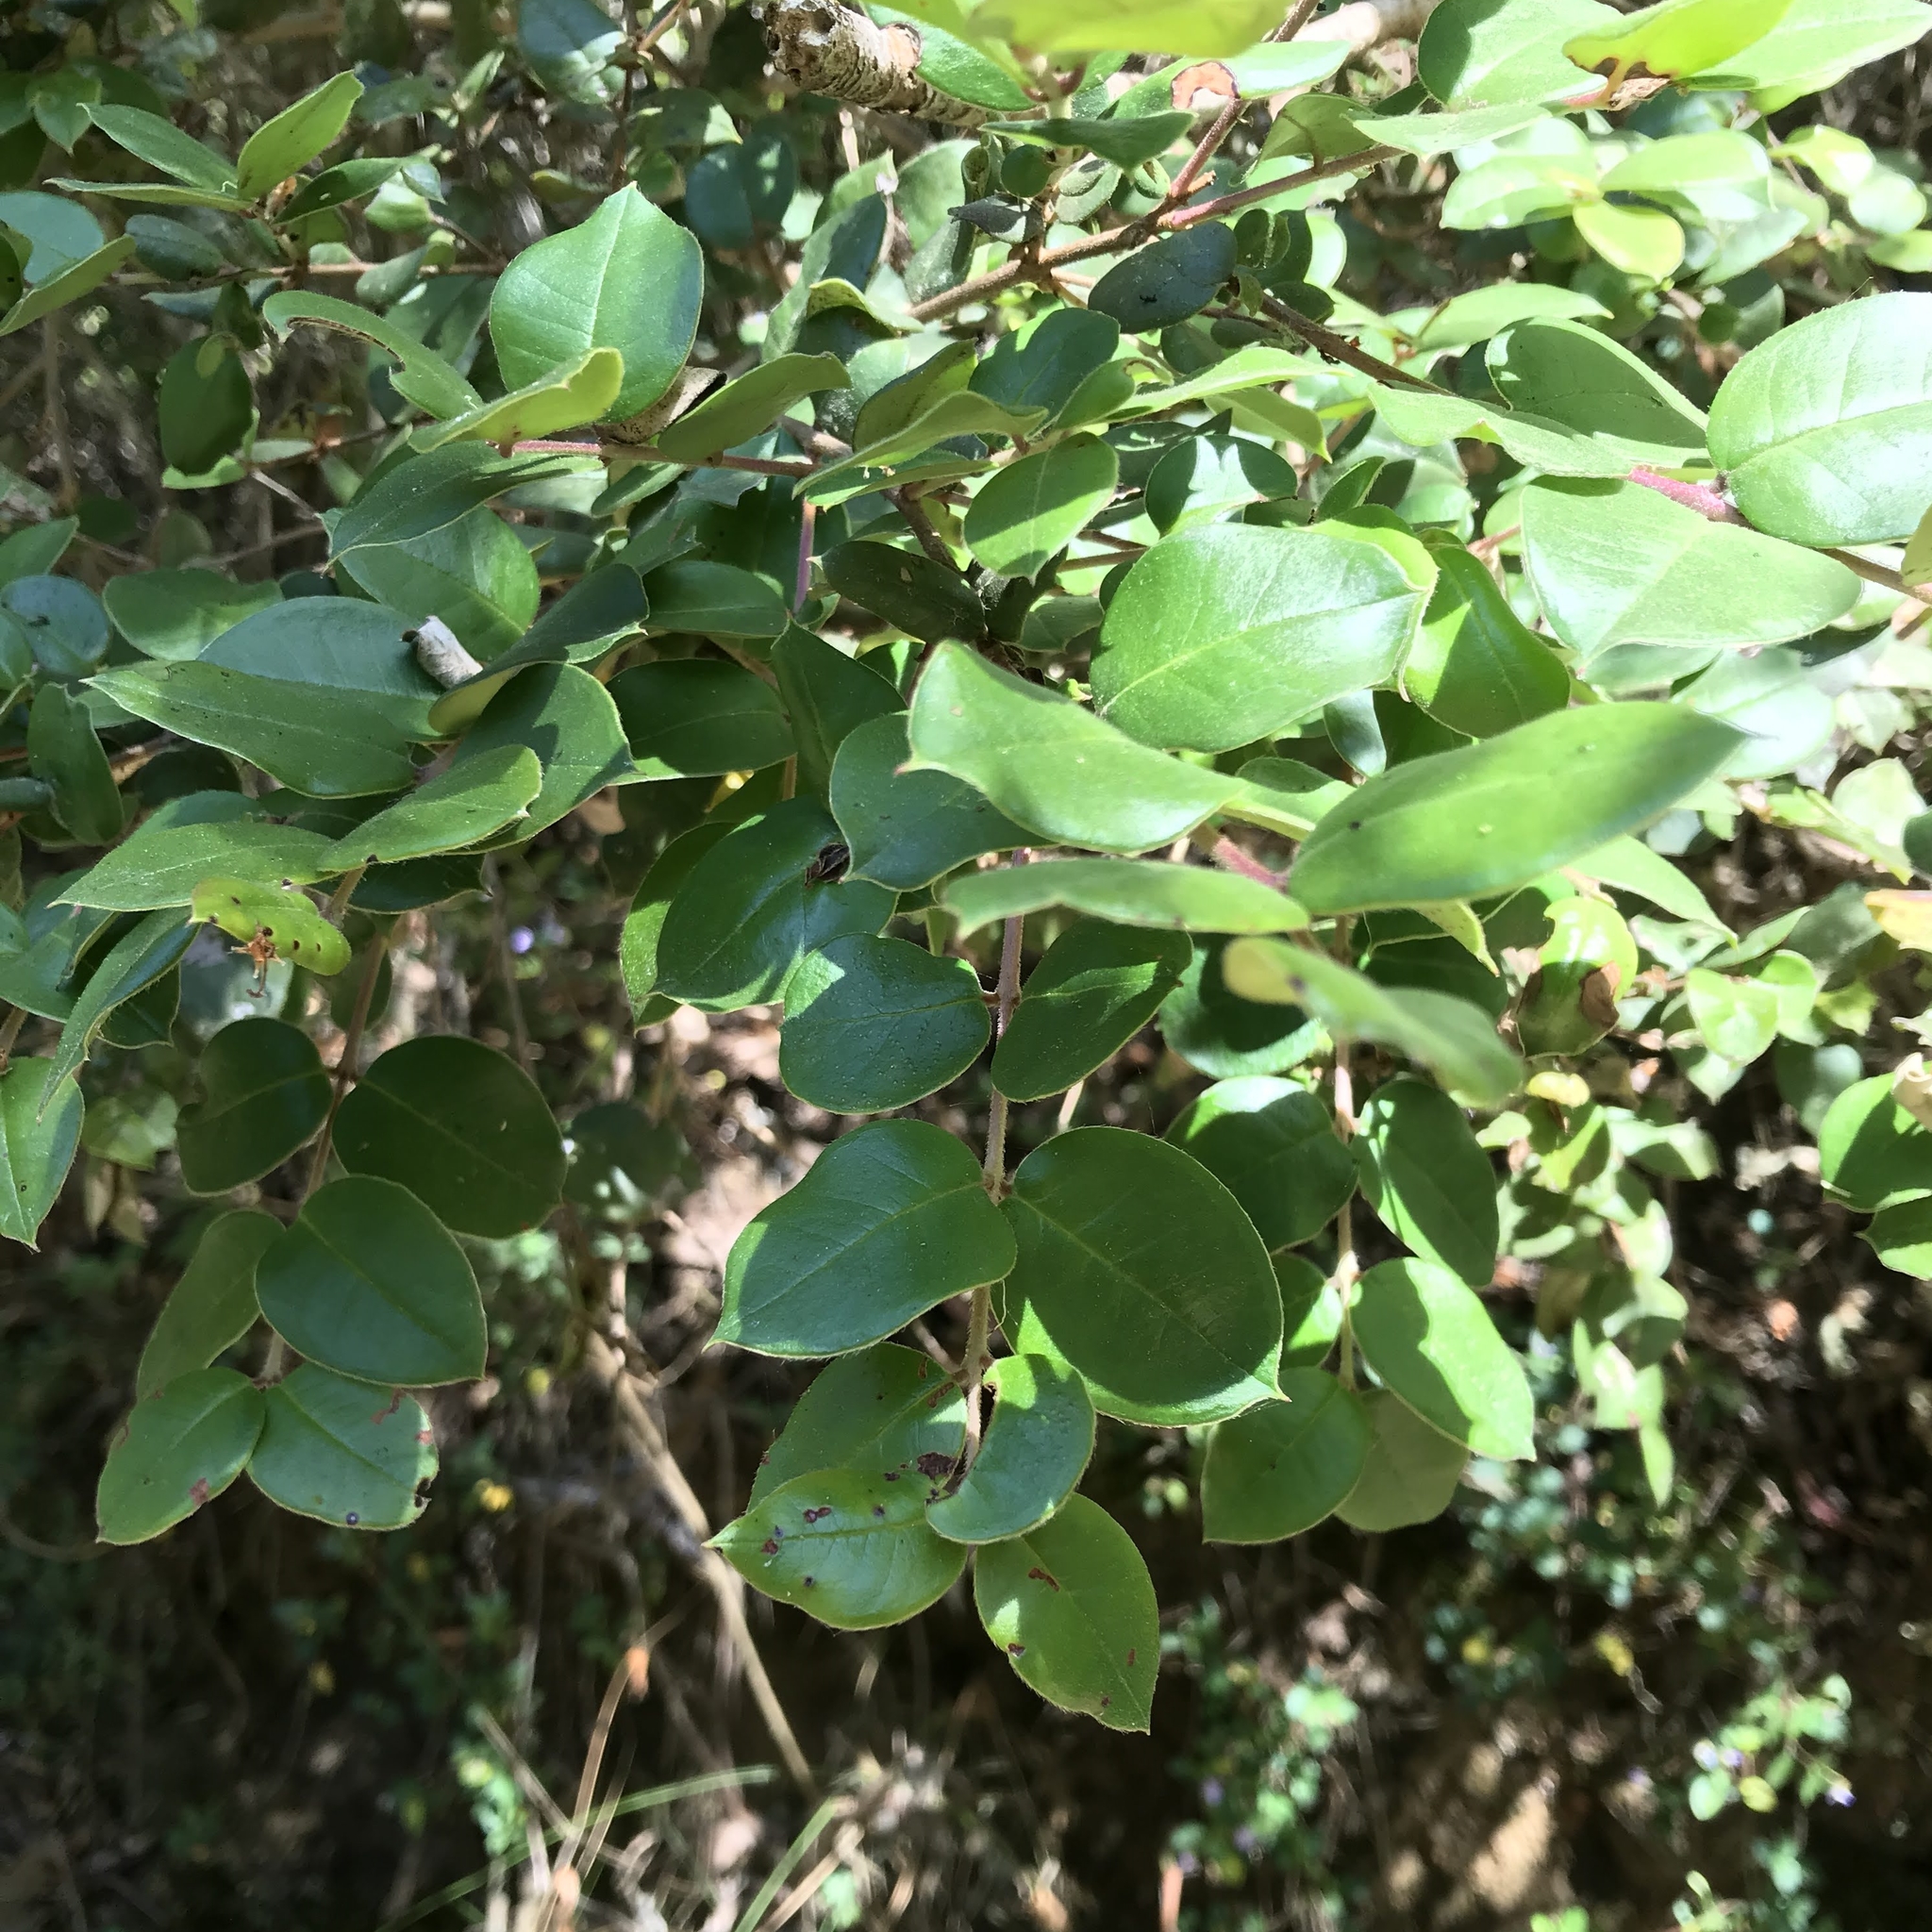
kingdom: Plantae
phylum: Tracheophyta
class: Magnoliopsida
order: Myrtales
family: Myrtaceae
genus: Luma
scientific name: Luma apiculata
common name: Chilean myrtle
